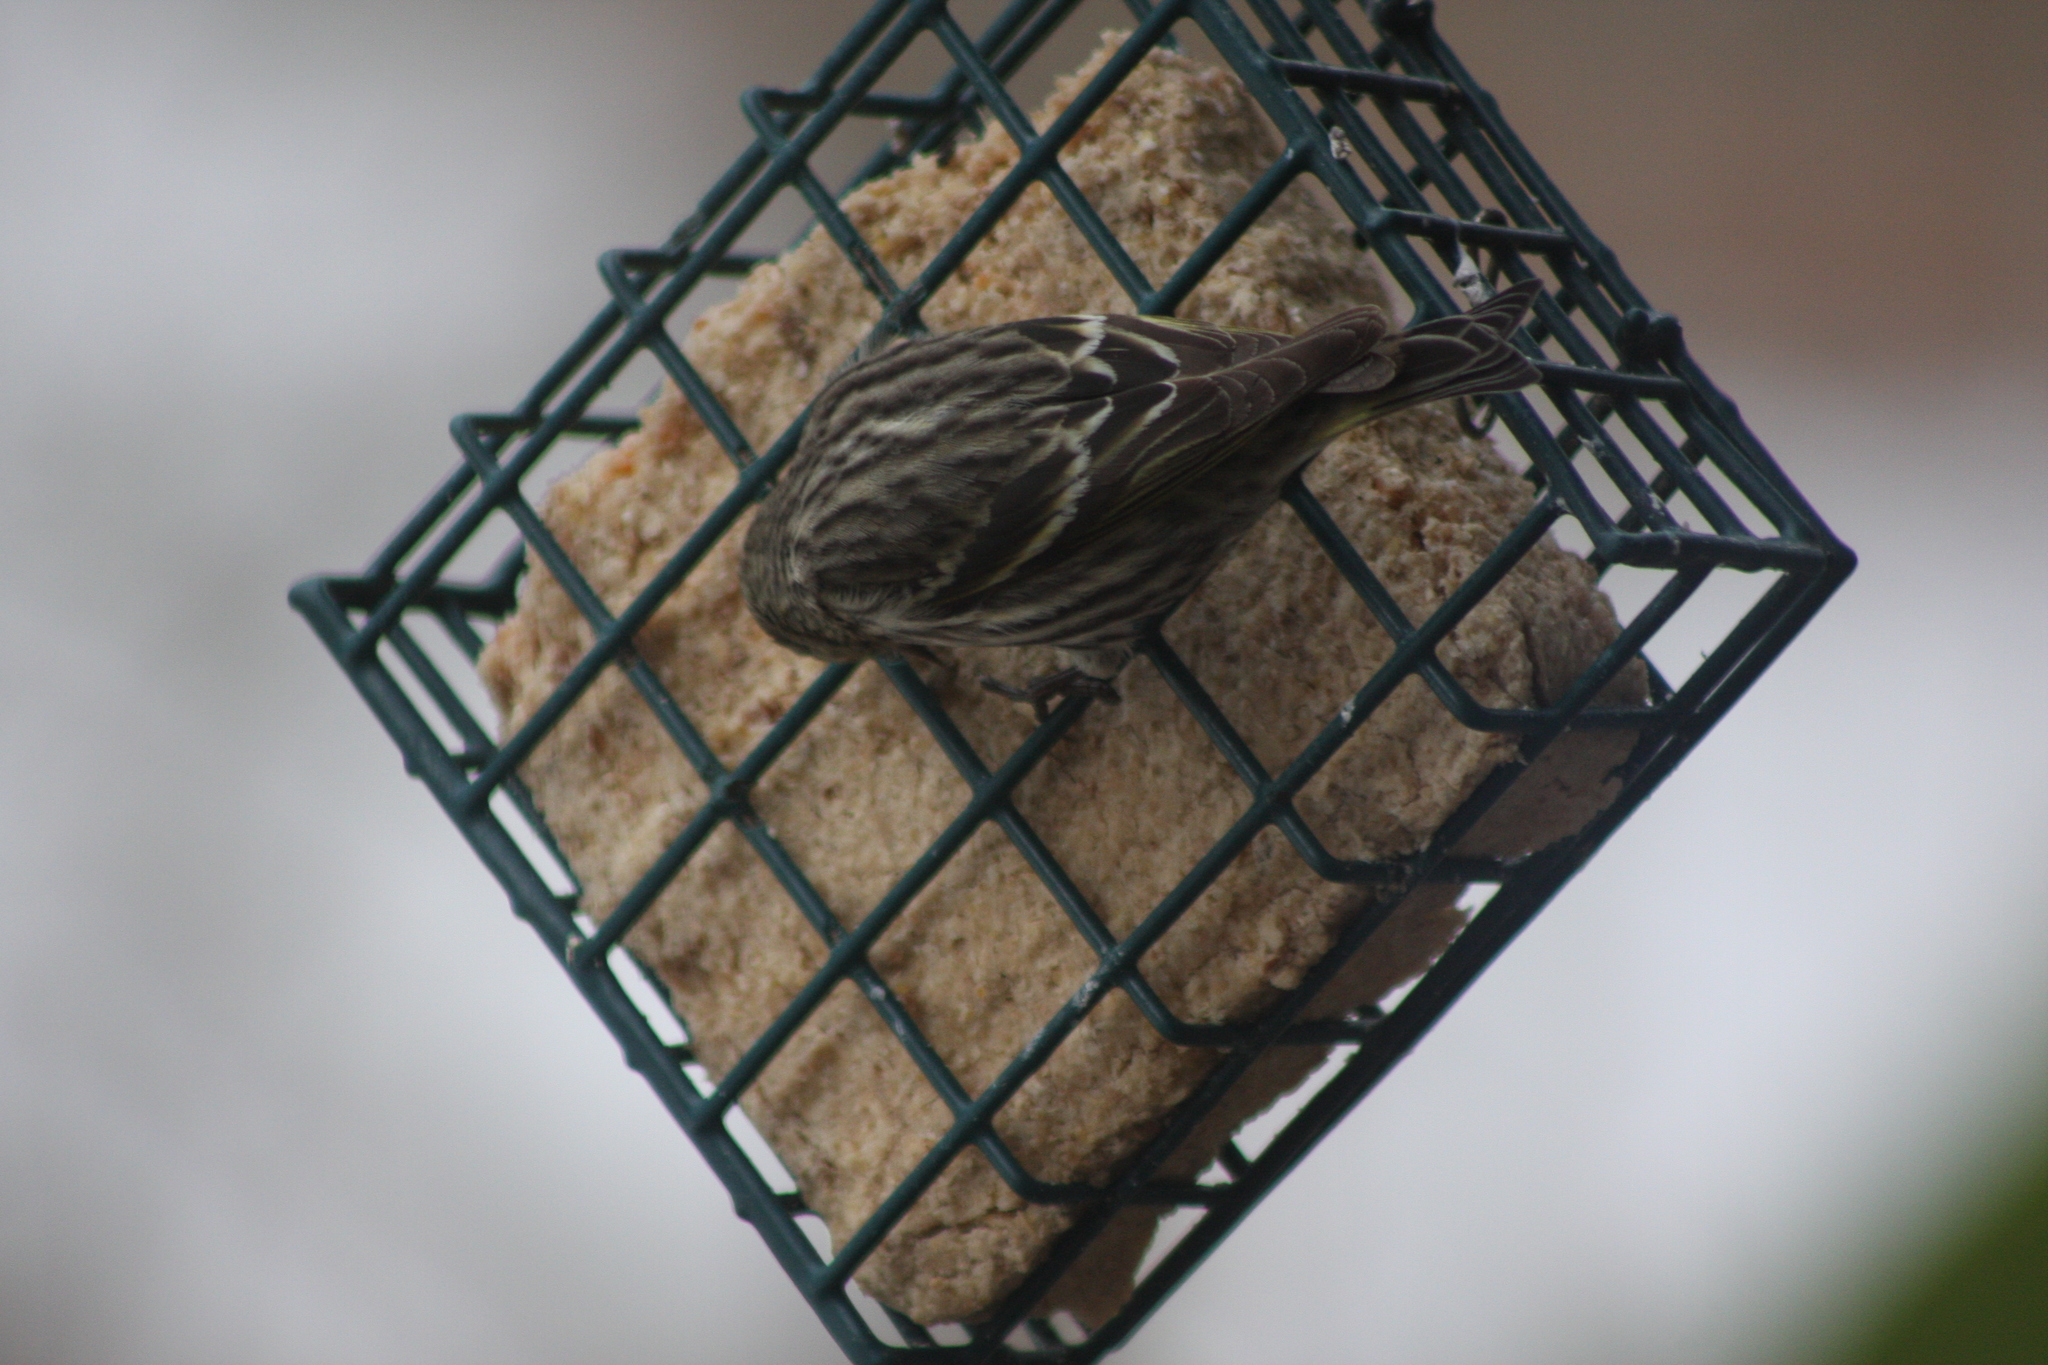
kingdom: Animalia
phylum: Chordata
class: Aves
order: Passeriformes
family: Fringillidae
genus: Spinus
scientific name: Spinus pinus
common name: Pine siskin
